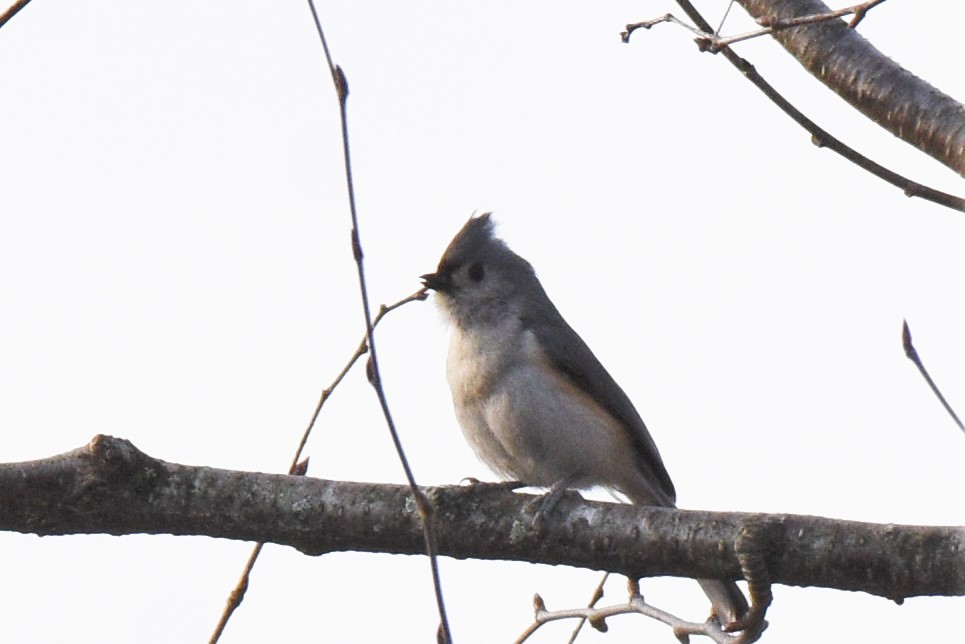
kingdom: Animalia
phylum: Chordata
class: Aves
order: Passeriformes
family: Paridae
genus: Baeolophus
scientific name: Baeolophus bicolor
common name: Tufted titmouse
